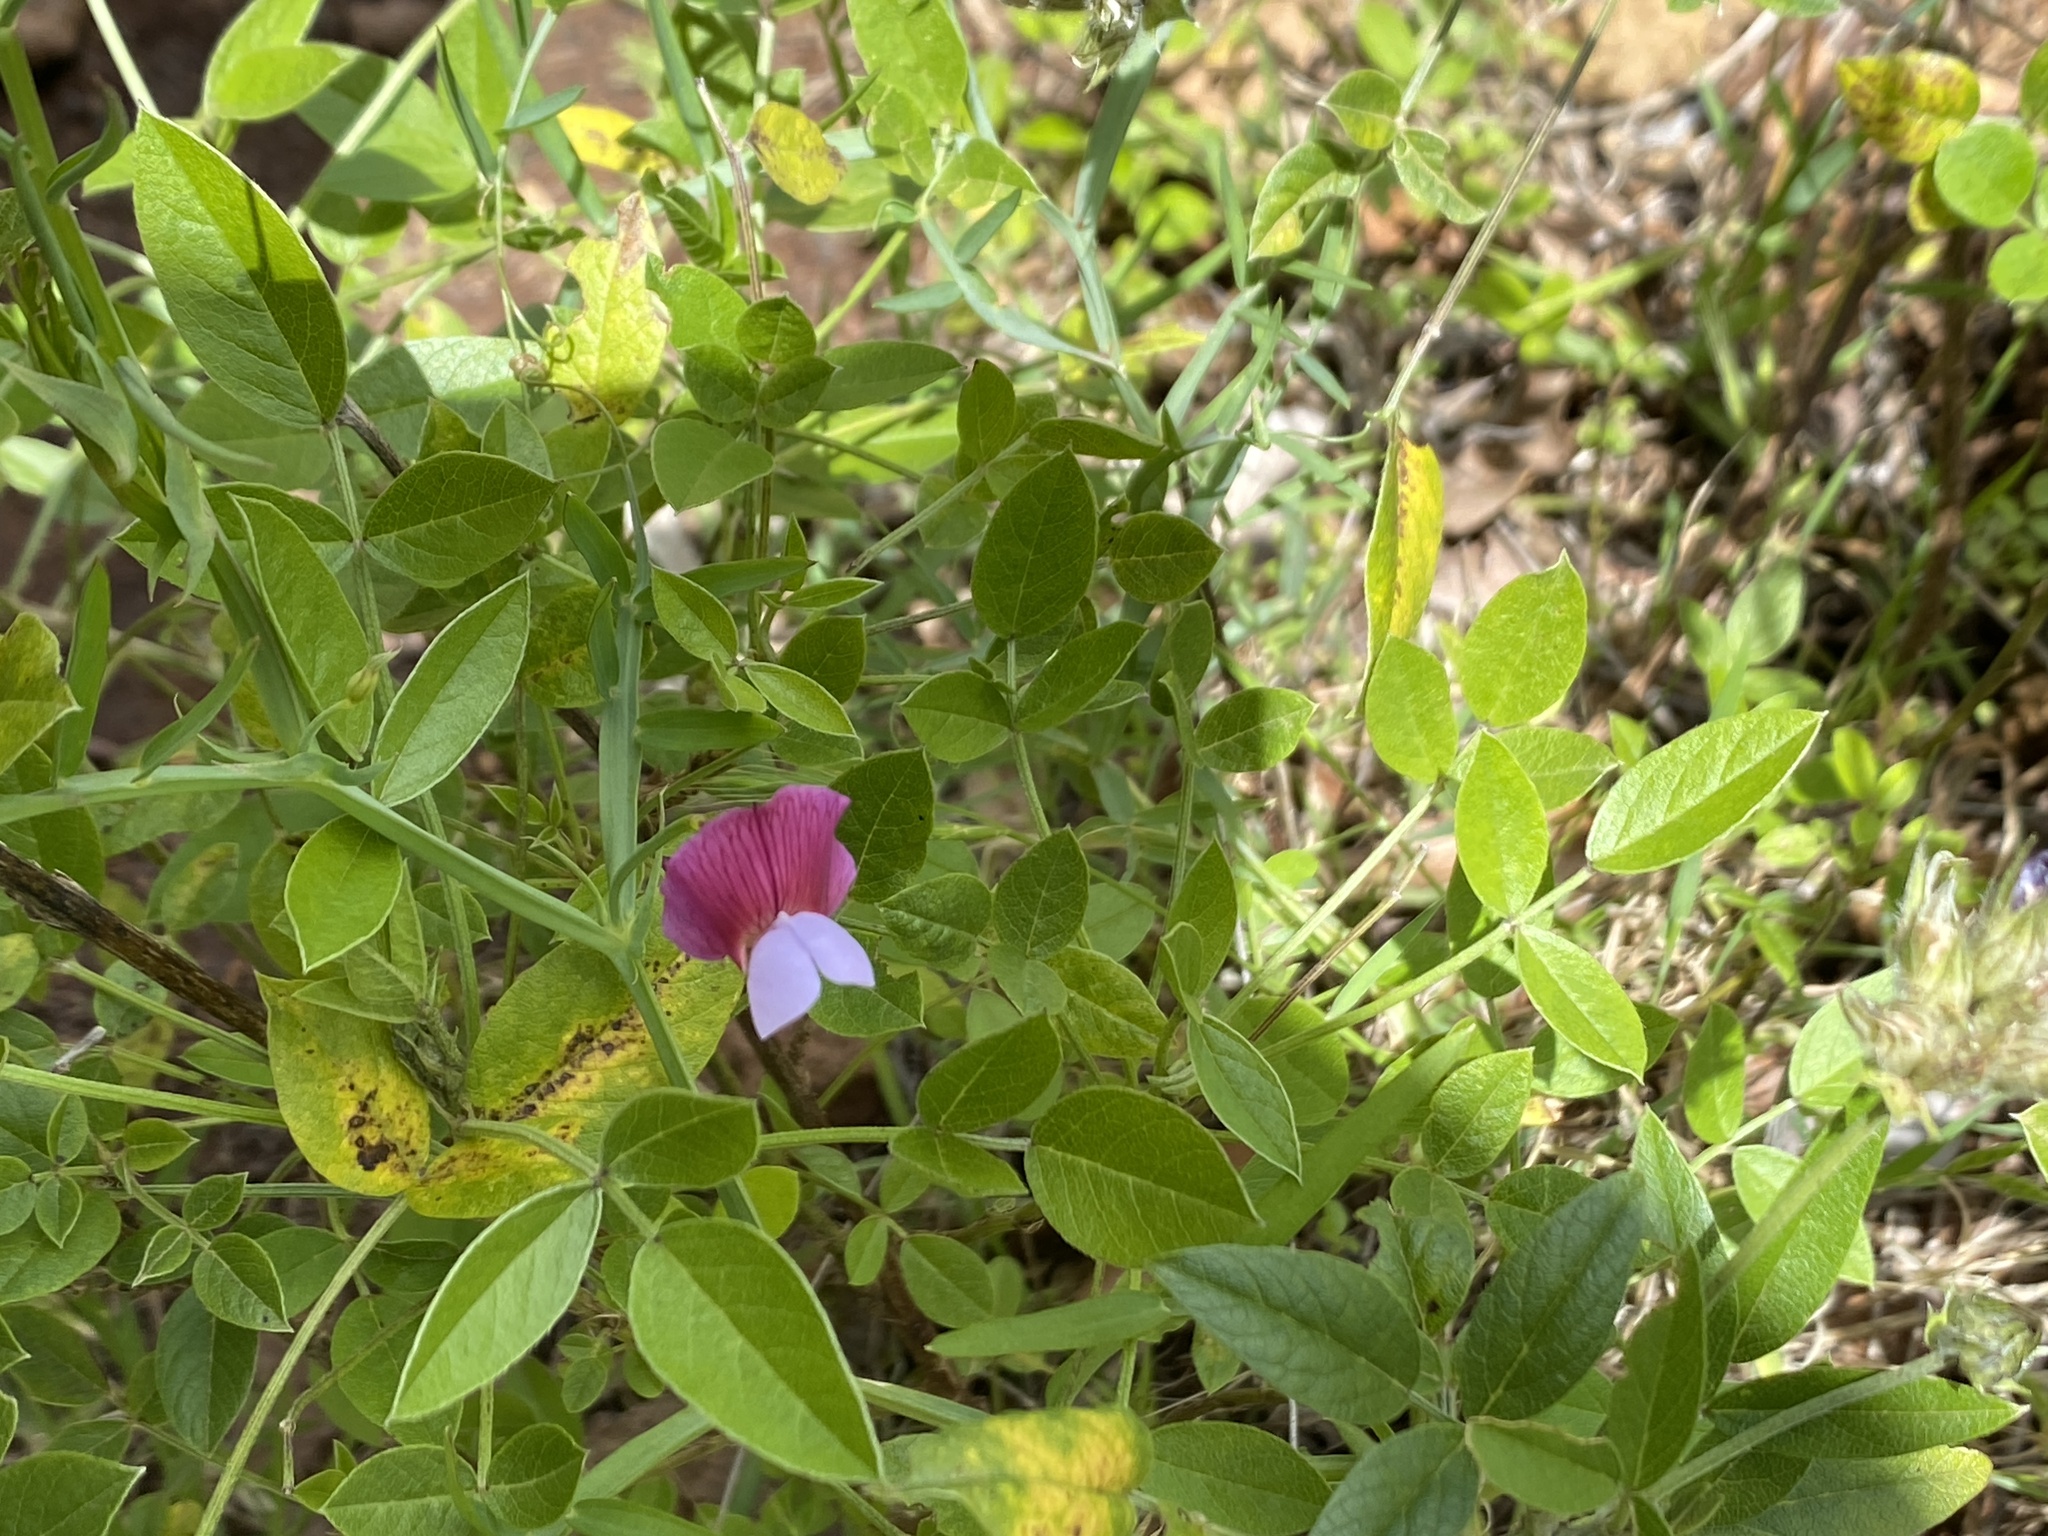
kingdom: Plantae
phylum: Tracheophyta
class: Magnoliopsida
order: Fabales
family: Fabaceae
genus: Lathyrus
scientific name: Lathyrus clymenum
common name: Spanish vetchling
